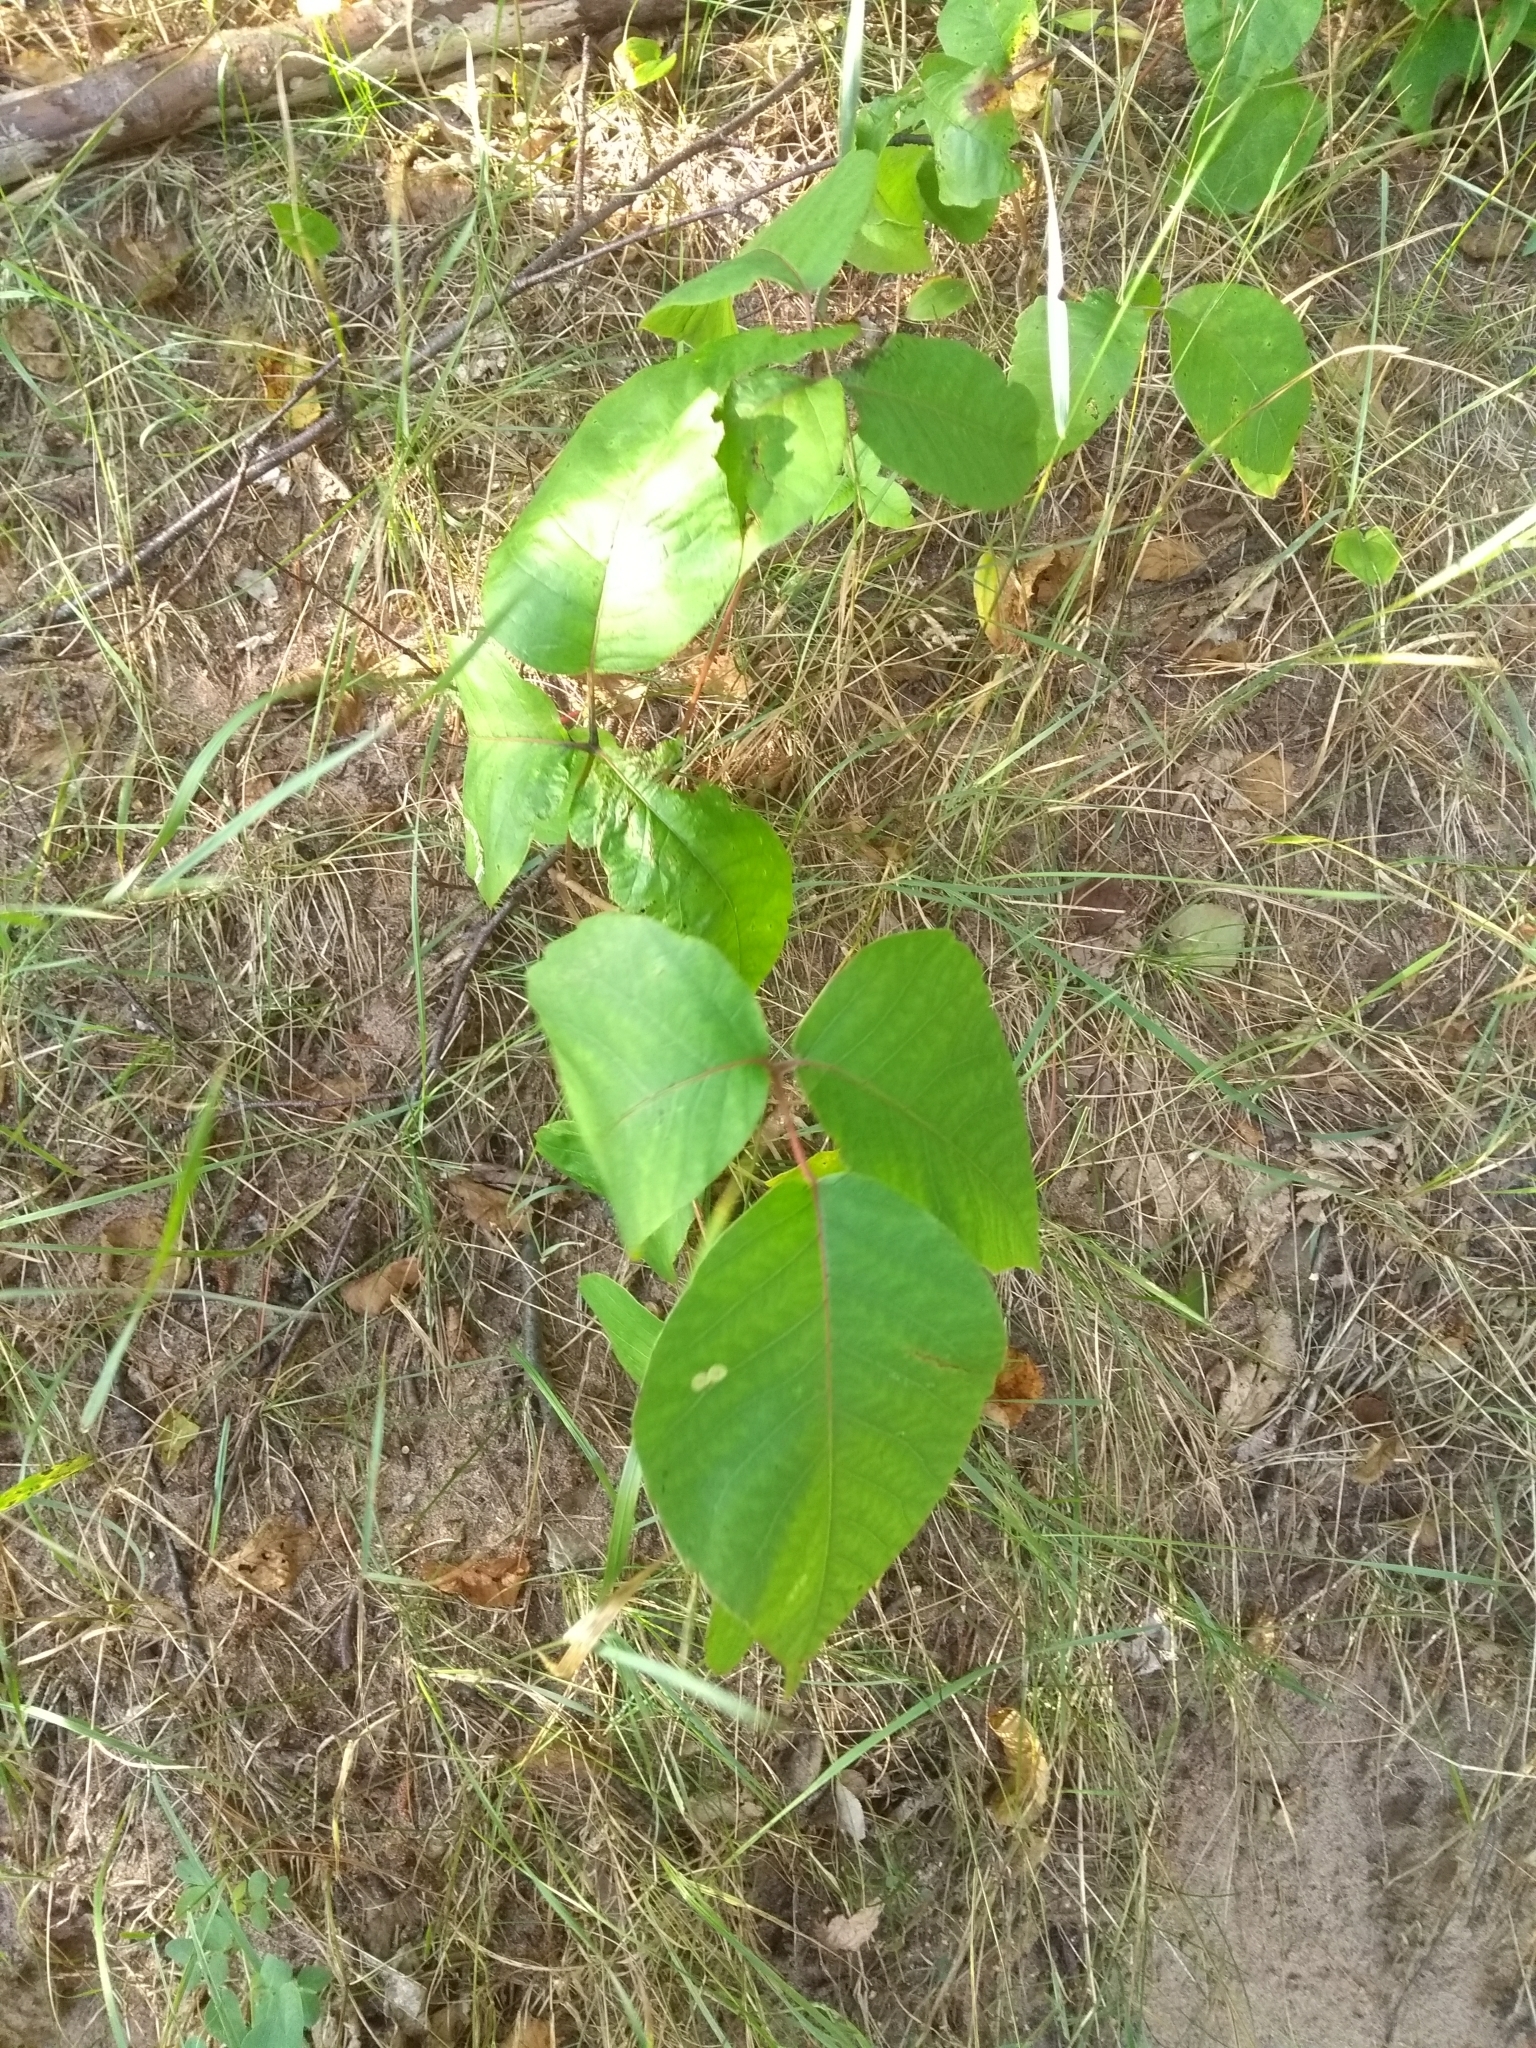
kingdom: Plantae
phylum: Tracheophyta
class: Magnoliopsida
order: Sapindales
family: Anacardiaceae
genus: Toxicodendron
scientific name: Toxicodendron rydbergii
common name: Rydberg's poison-ivy
